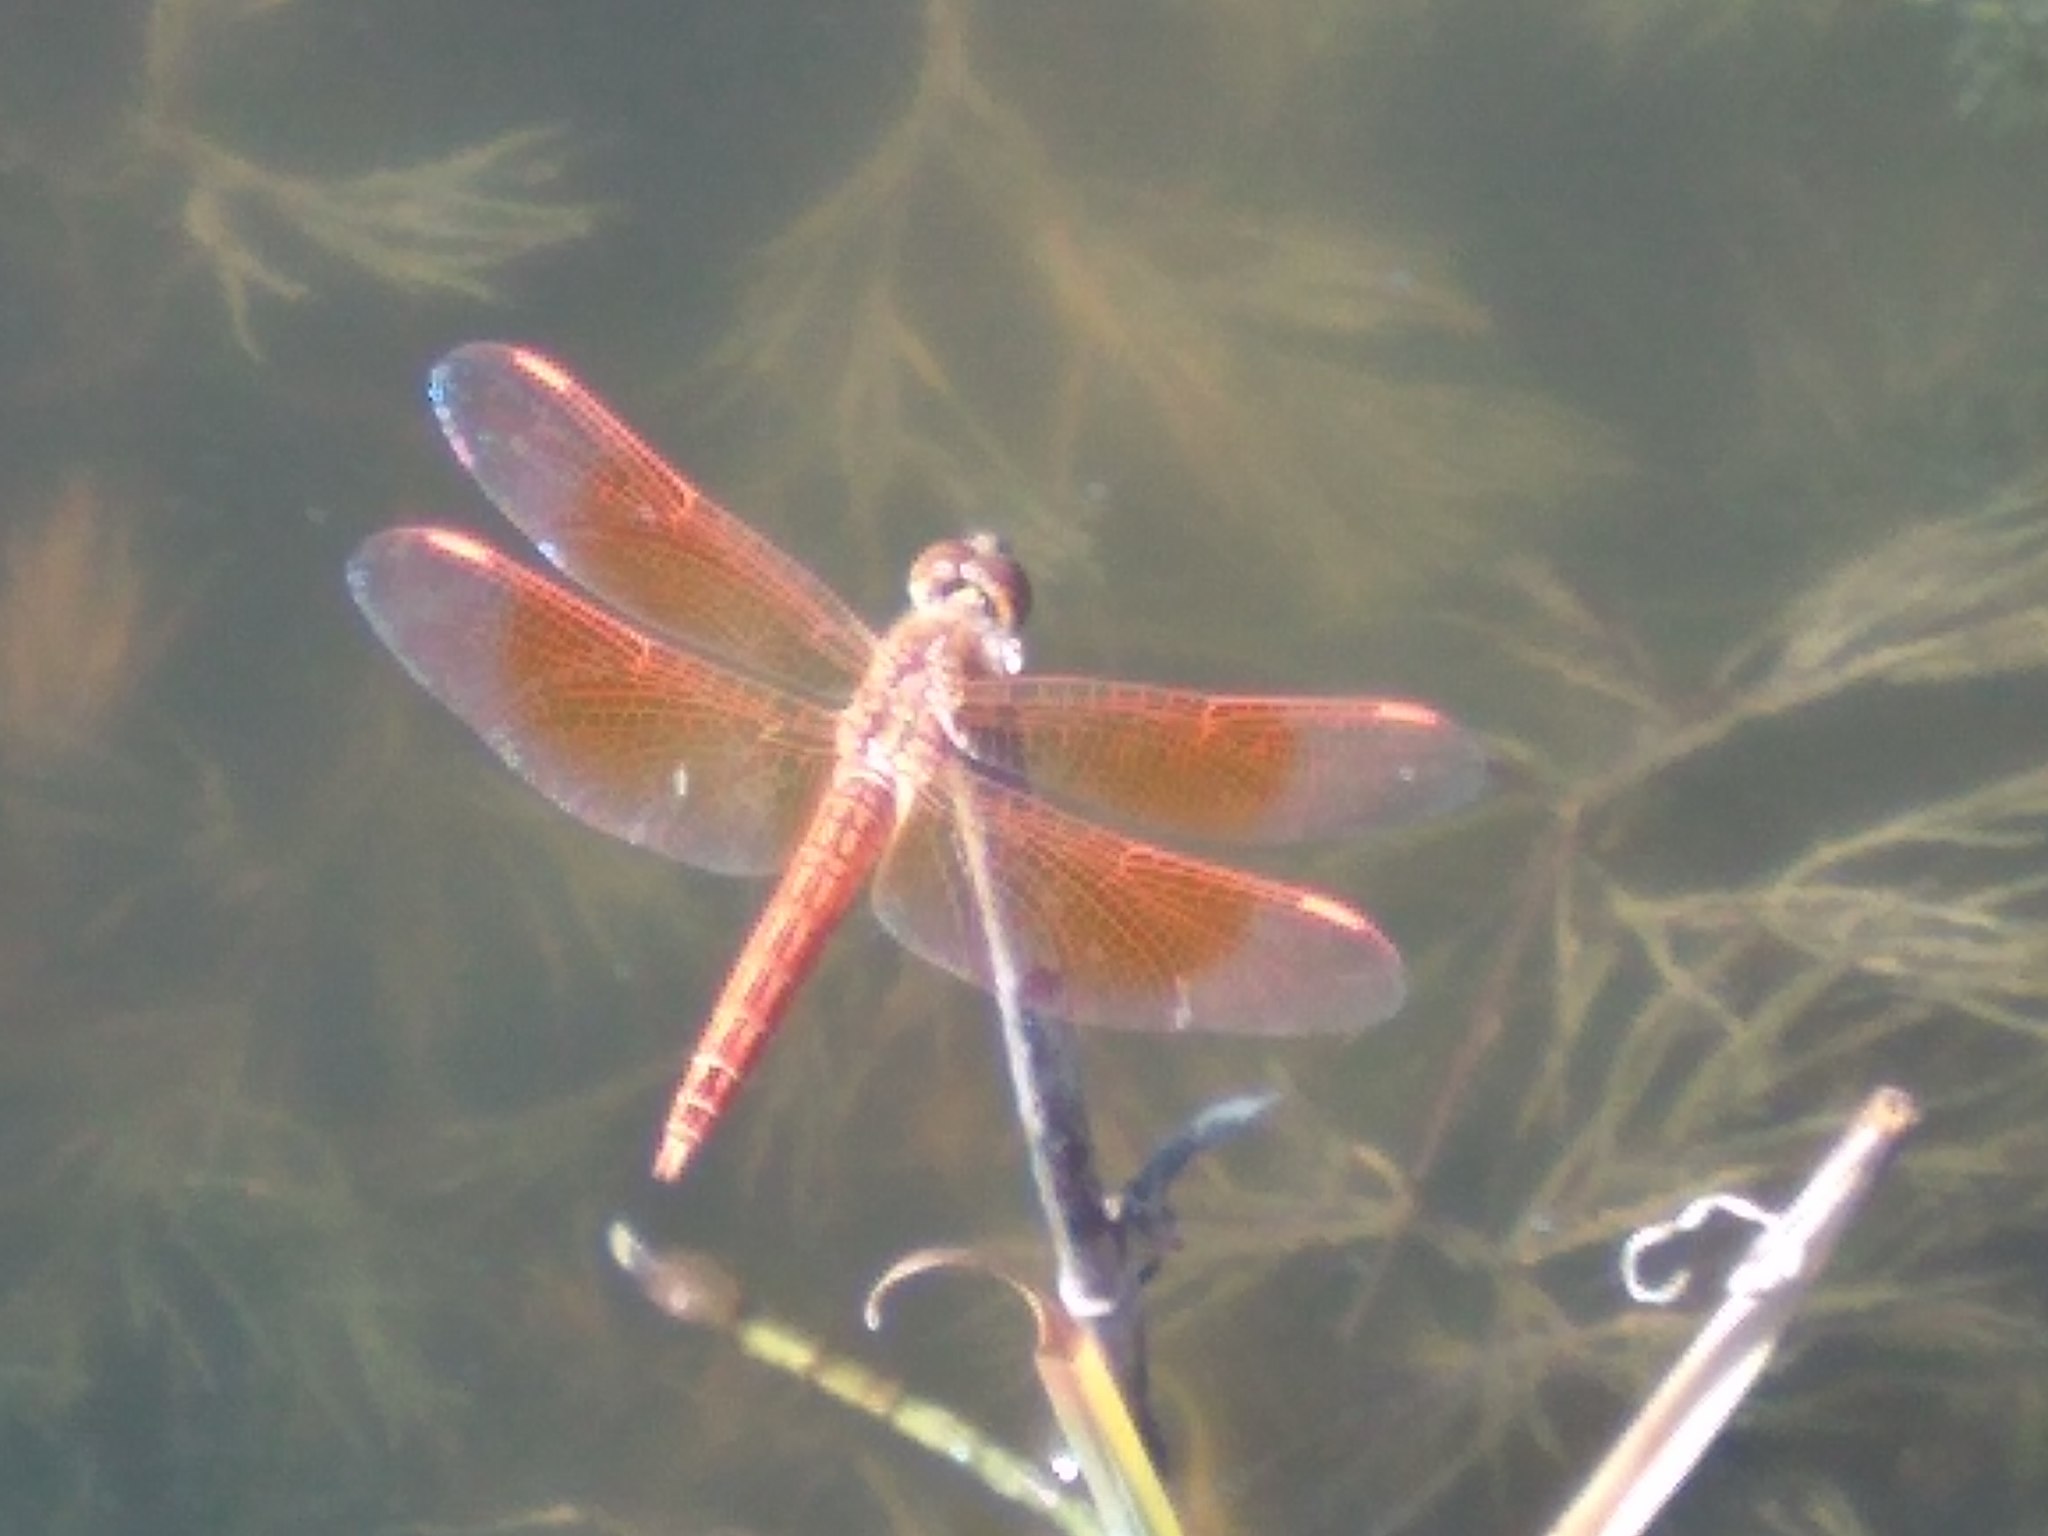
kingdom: Animalia
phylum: Arthropoda
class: Insecta
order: Odonata
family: Libellulidae
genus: Brachythemis
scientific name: Brachythemis contaminata
